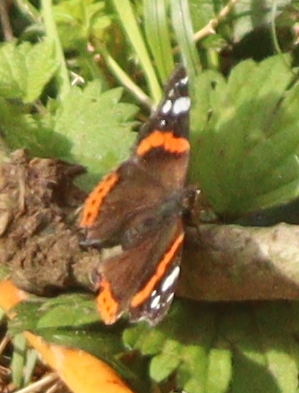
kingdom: Animalia
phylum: Arthropoda
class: Insecta
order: Lepidoptera
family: Nymphalidae
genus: Vanessa
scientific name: Vanessa atalanta
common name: Red admiral
